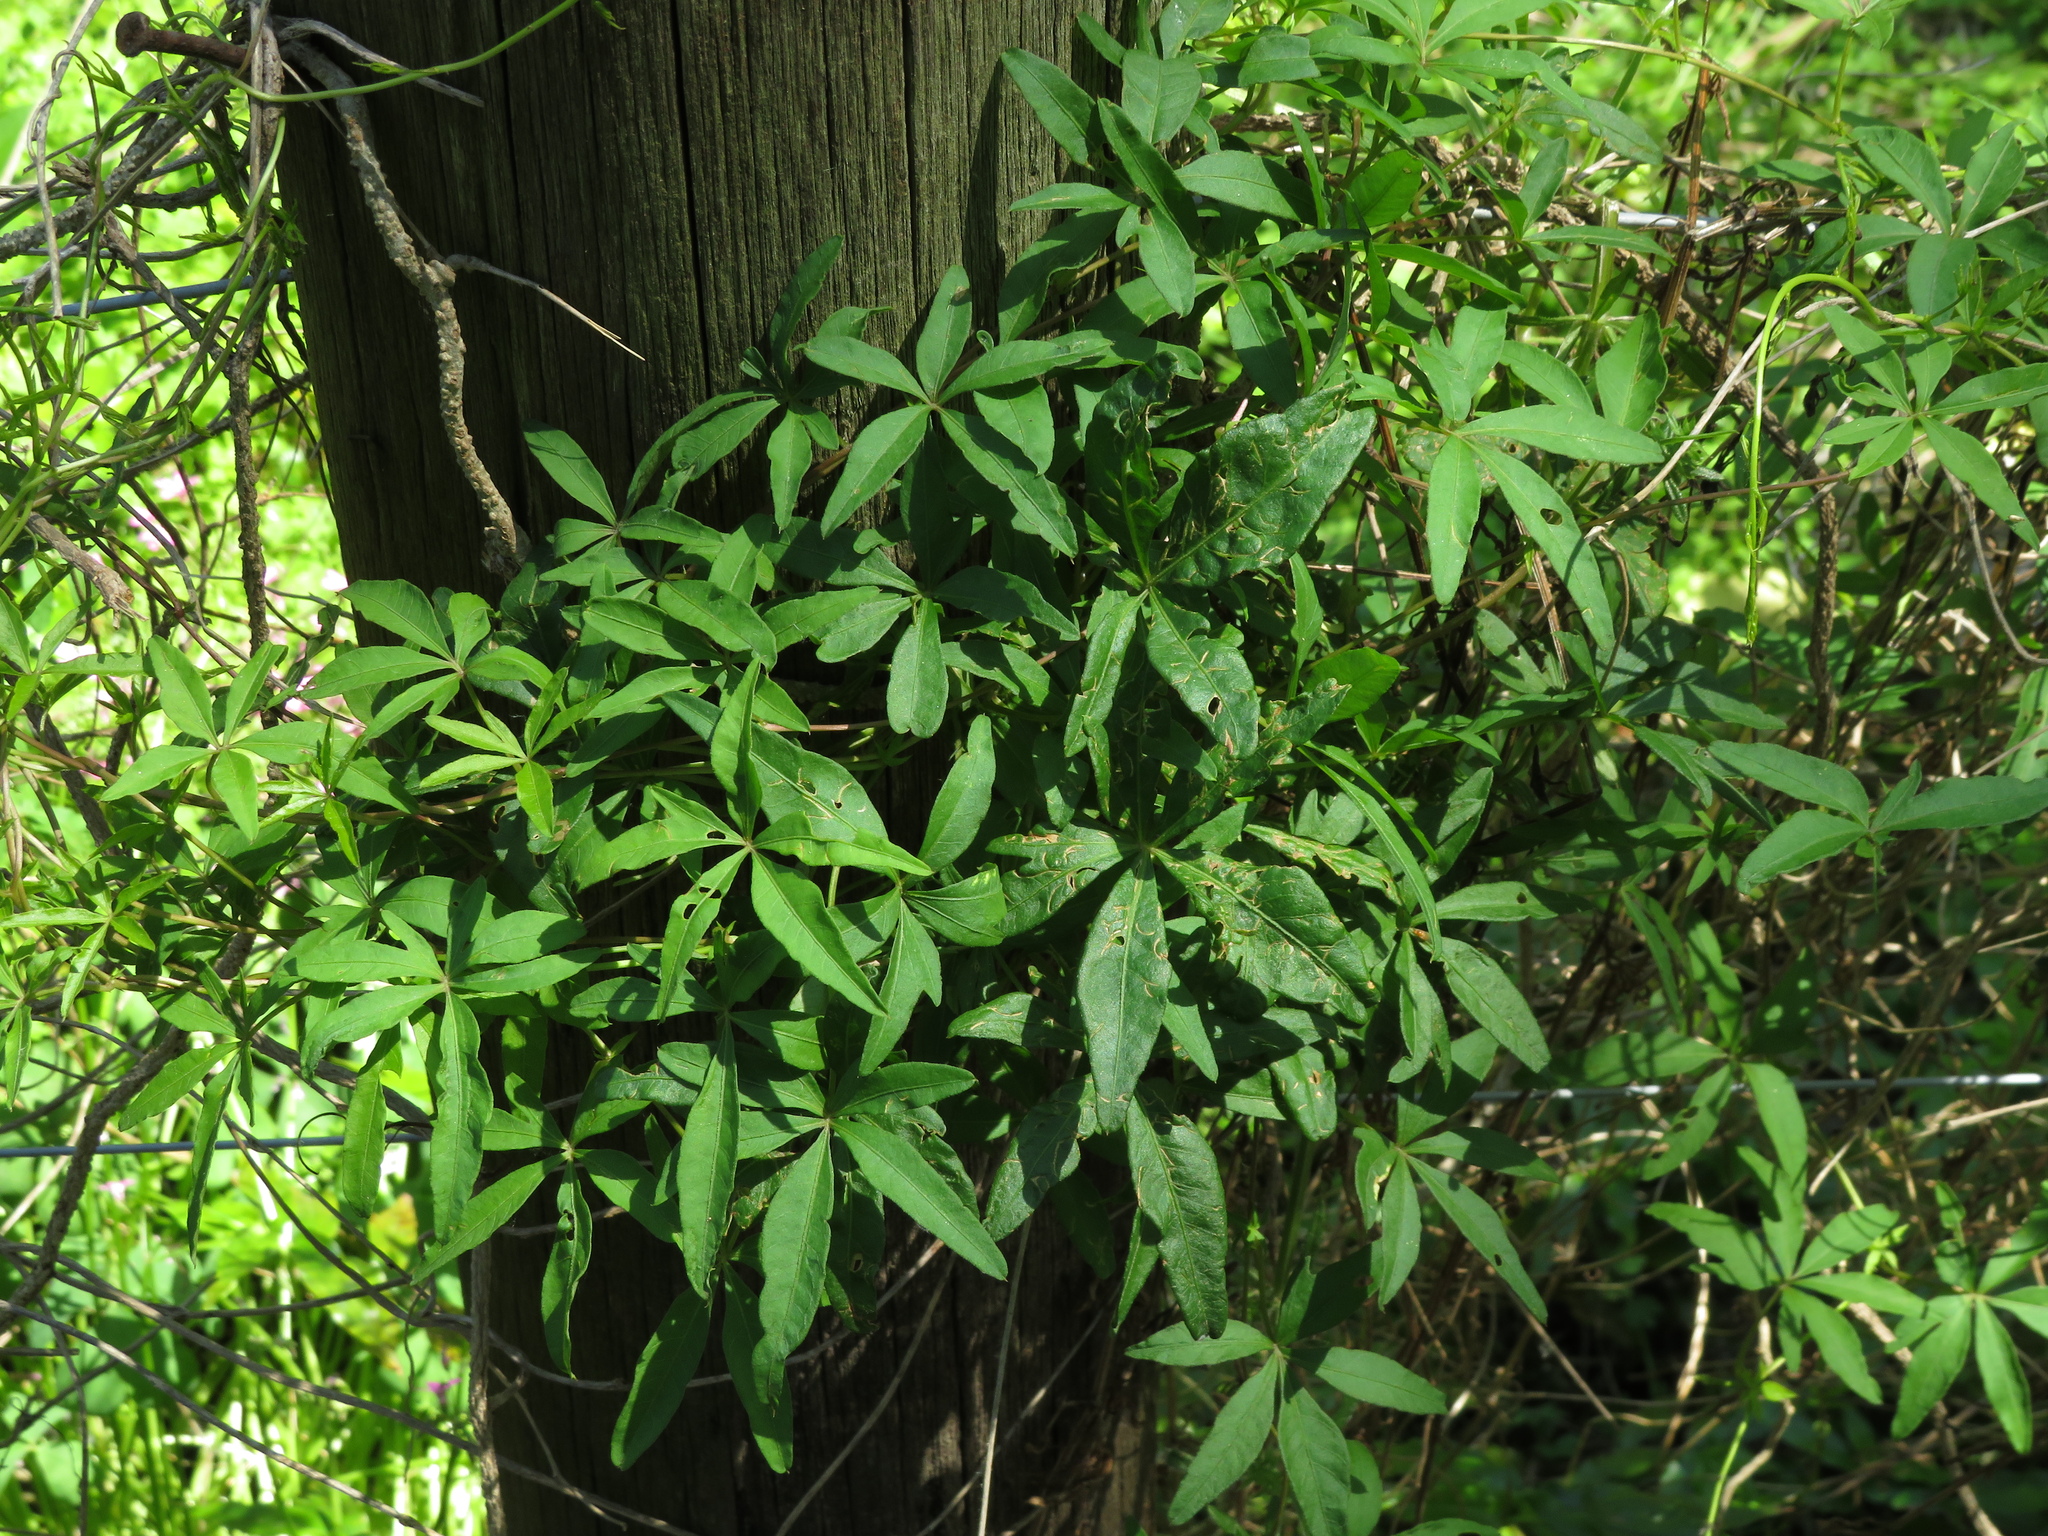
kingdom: Plantae
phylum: Tracheophyta
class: Magnoliopsida
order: Solanales
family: Convolvulaceae
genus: Ipomoea
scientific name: Ipomoea cairica
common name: Mile a minute vine
